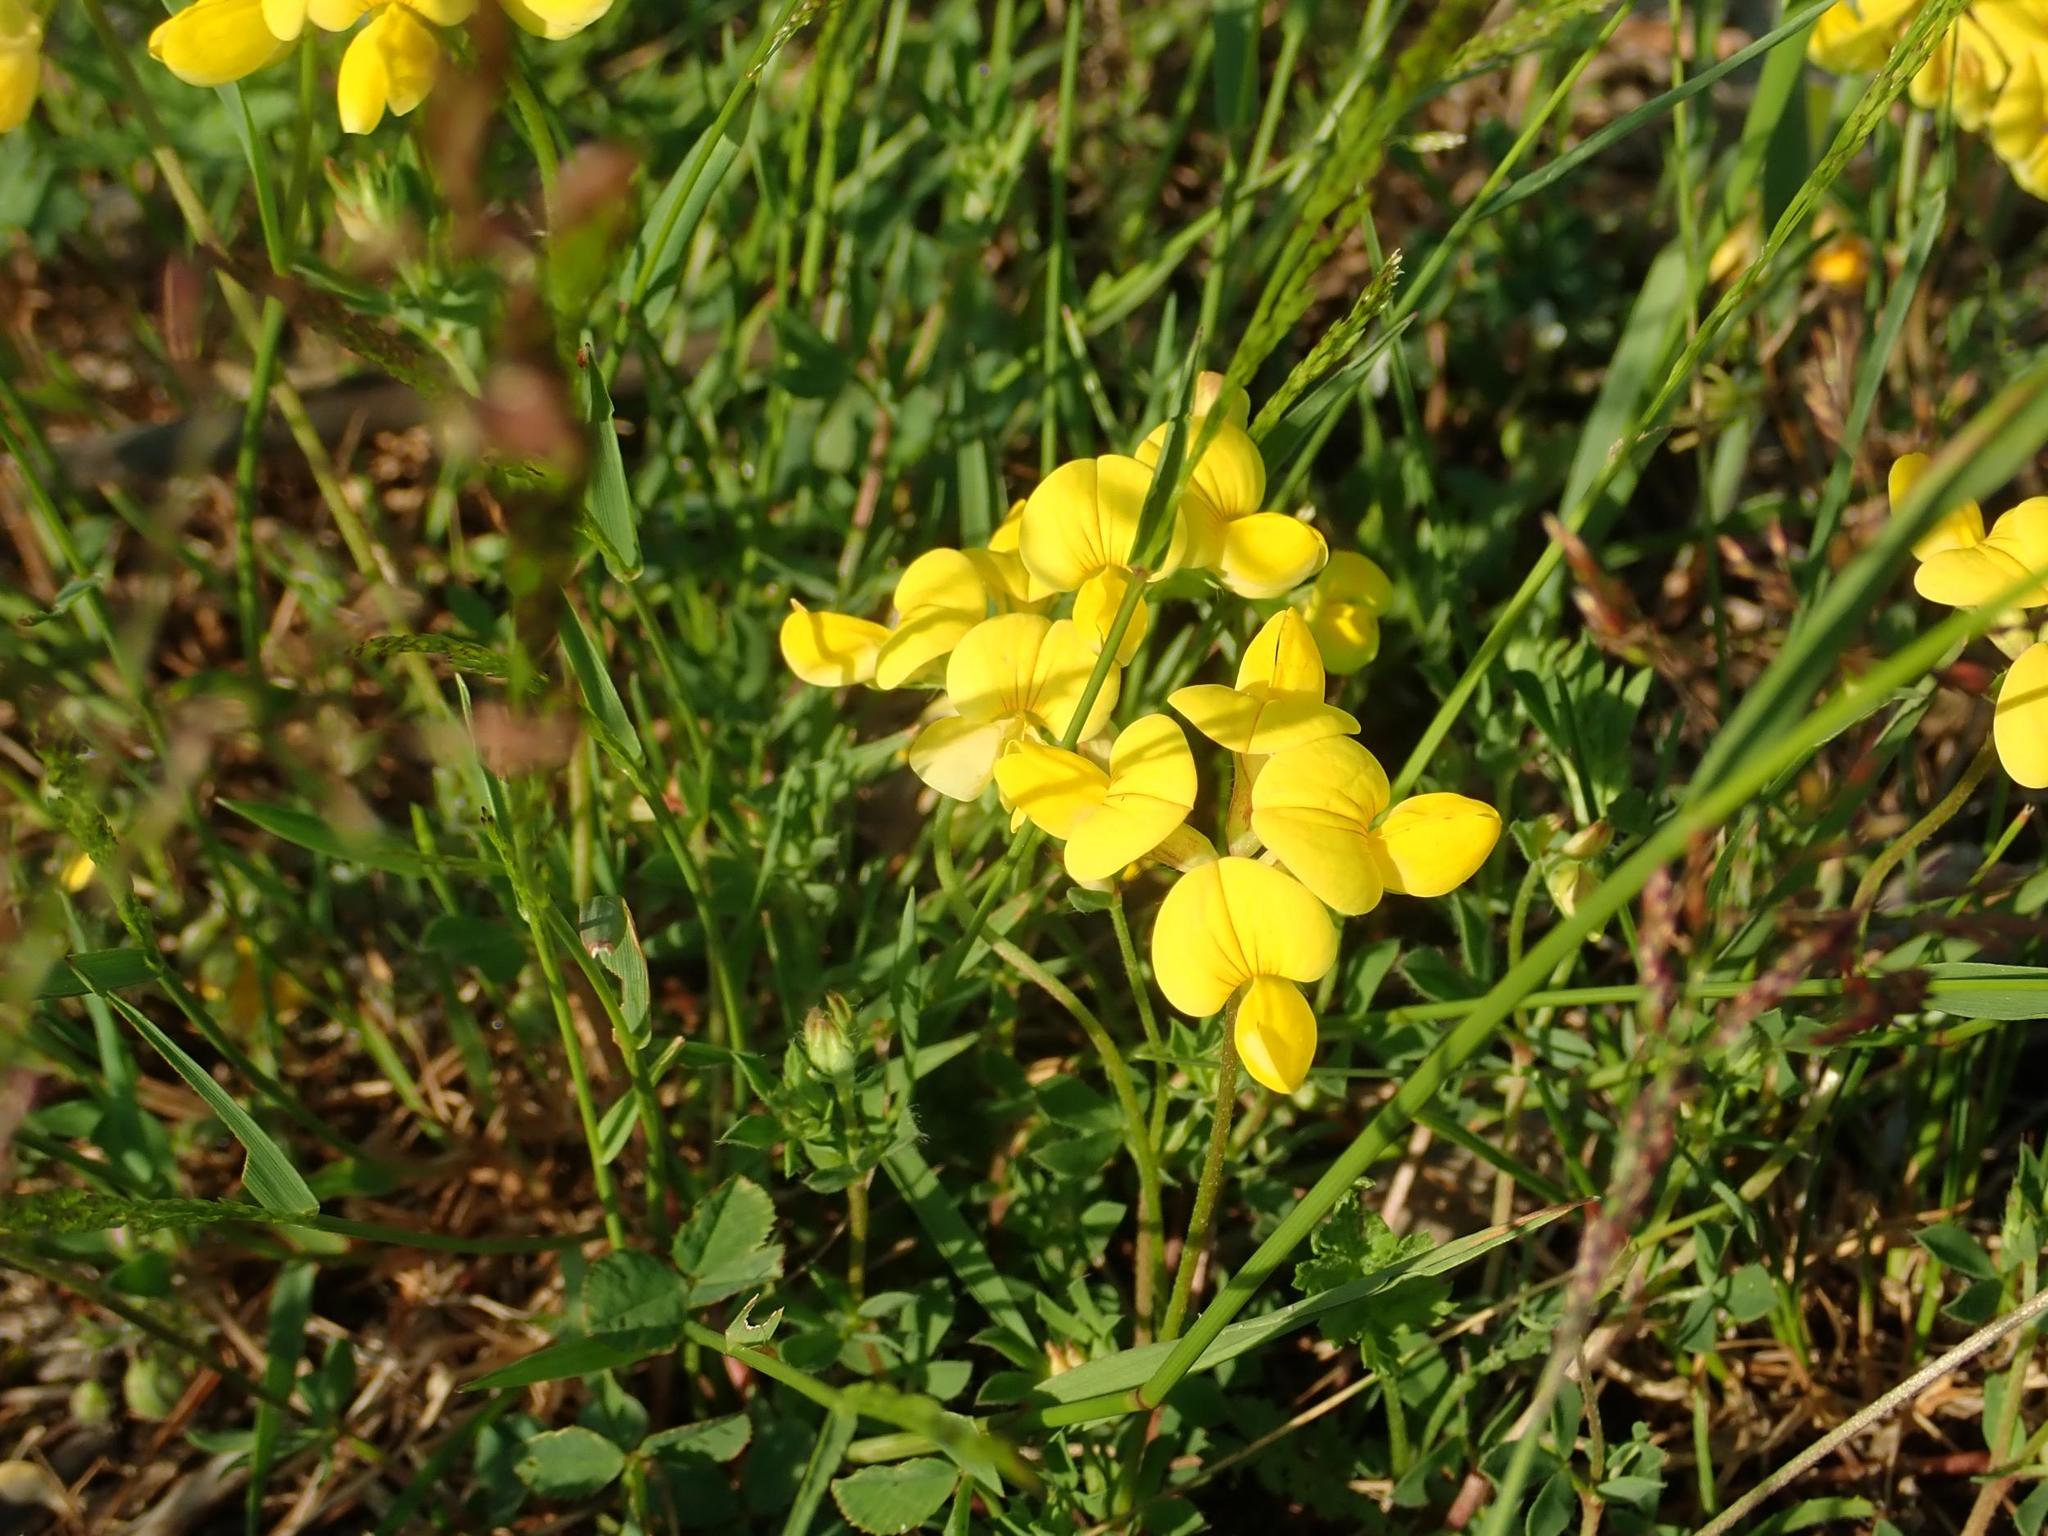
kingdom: Plantae
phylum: Tracheophyta
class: Magnoliopsida
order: Fabales
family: Fabaceae
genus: Lotus
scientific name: Lotus corniculatus
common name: Common bird's-foot-trefoil
